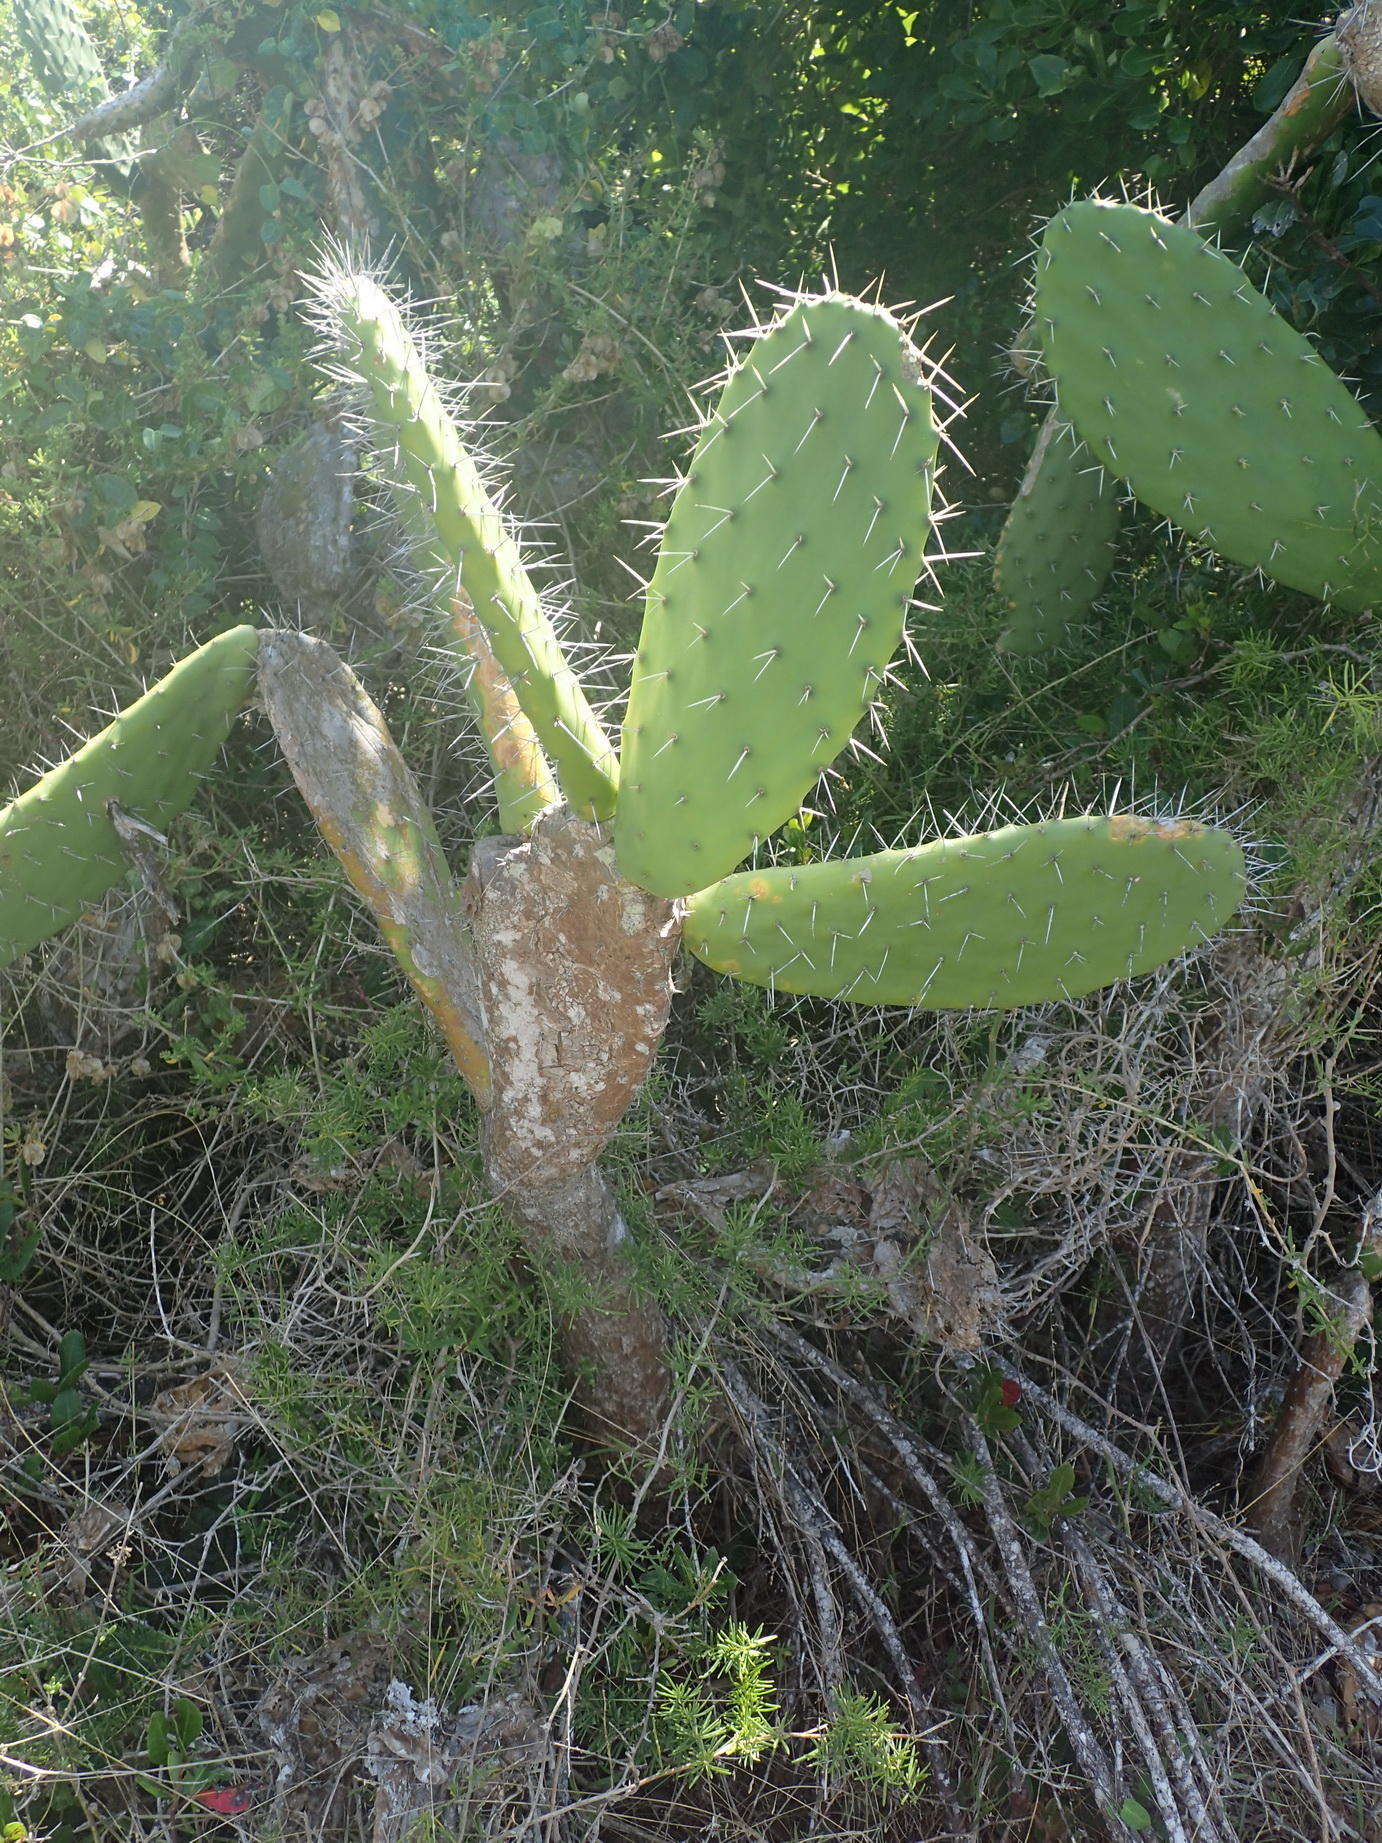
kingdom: Plantae
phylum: Tracheophyta
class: Magnoliopsida
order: Caryophyllales
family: Cactaceae
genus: Opuntia
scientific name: Opuntia ficus-indica
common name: Barbary fig
